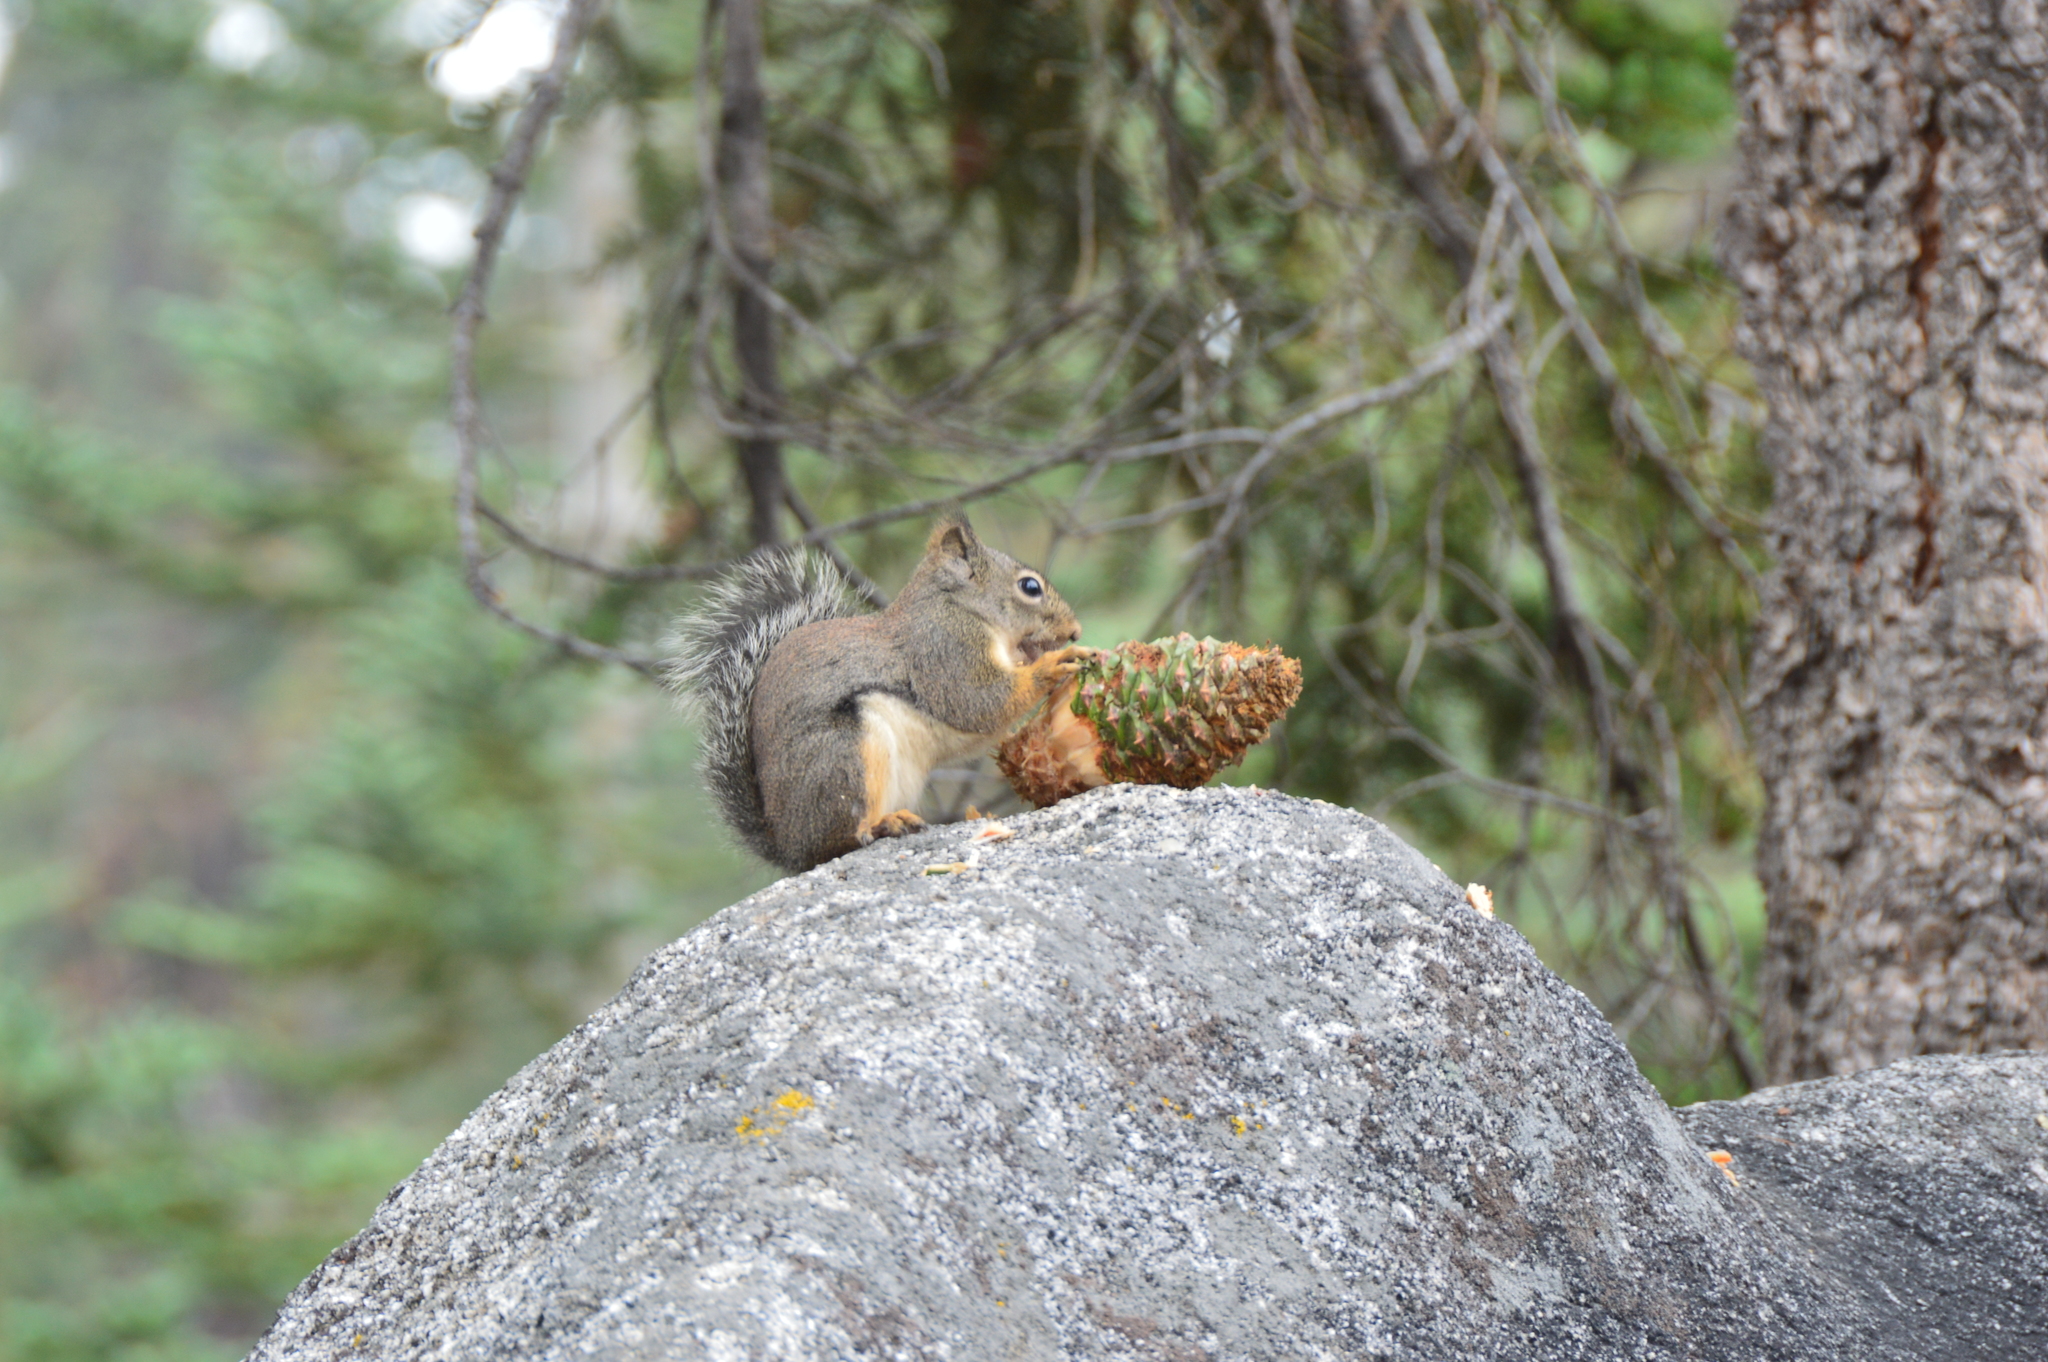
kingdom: Animalia
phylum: Chordata
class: Mammalia
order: Rodentia
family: Sciuridae
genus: Tamiasciurus
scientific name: Tamiasciurus douglasii
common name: Douglas's squirrel
